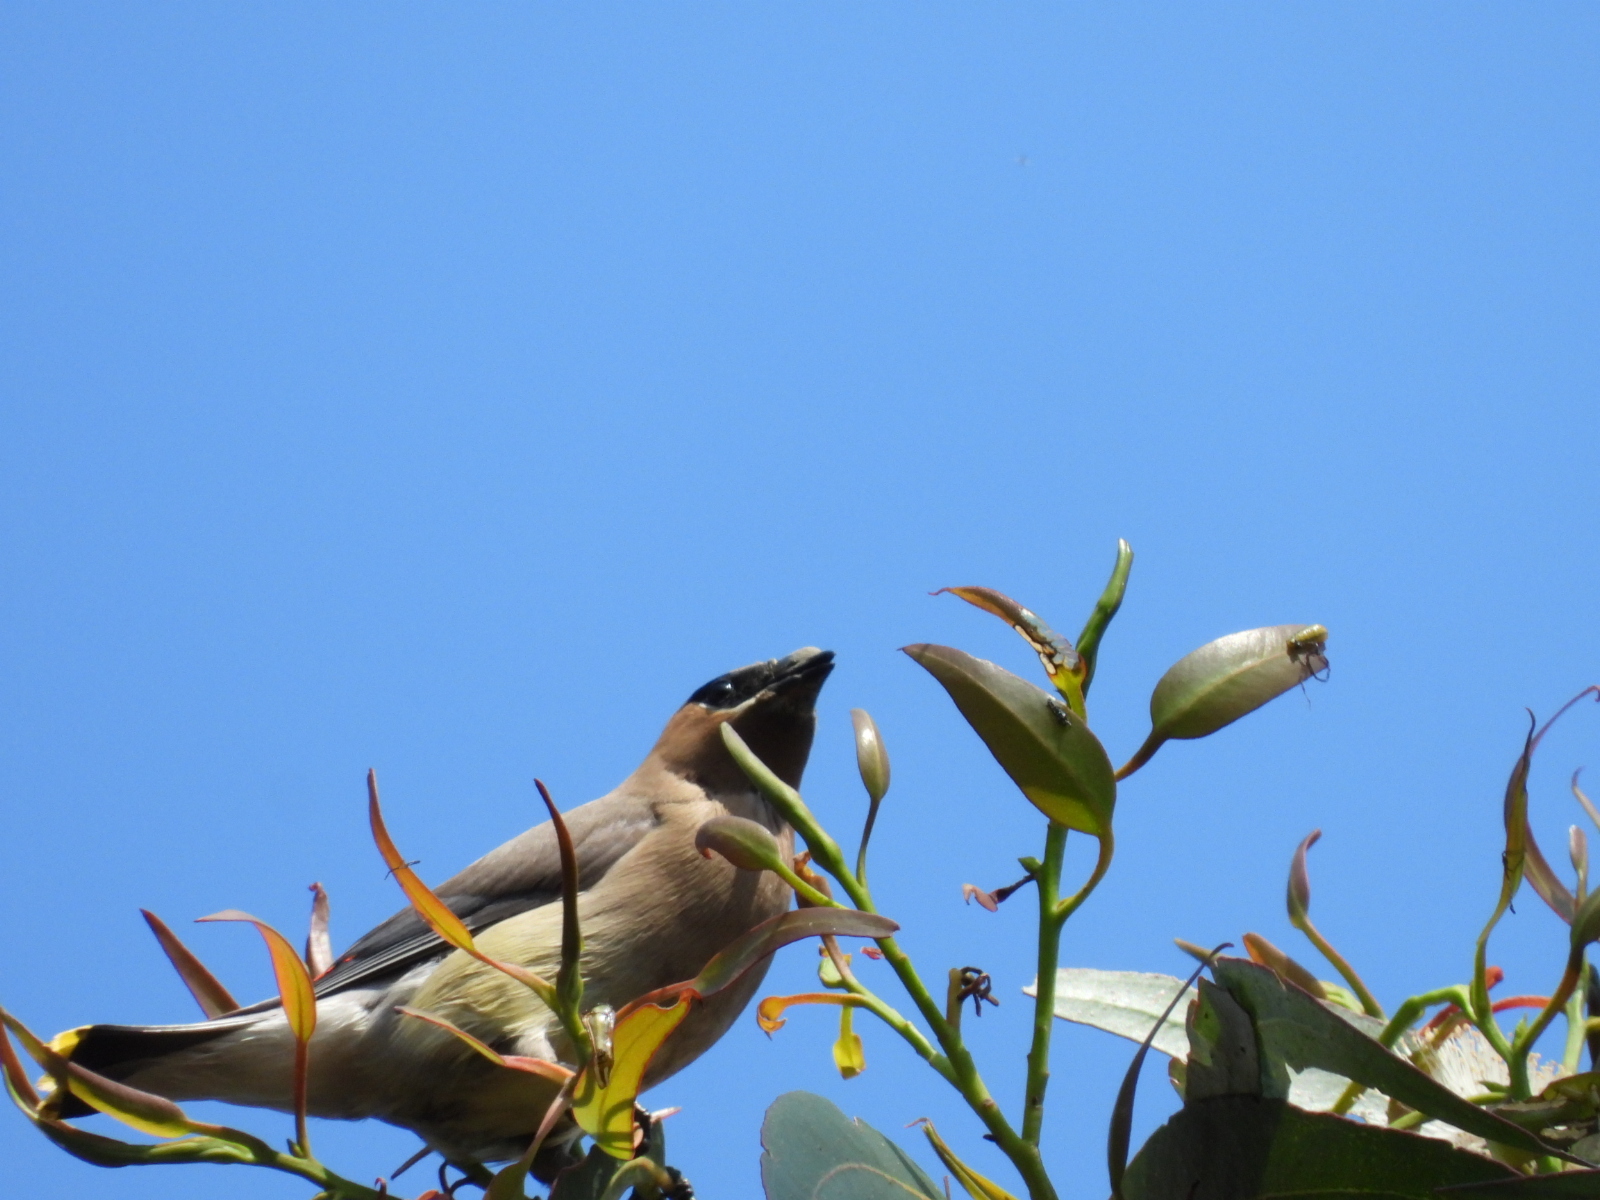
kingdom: Animalia
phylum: Chordata
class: Aves
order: Passeriformes
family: Bombycillidae
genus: Bombycilla
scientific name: Bombycilla cedrorum
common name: Cedar waxwing
